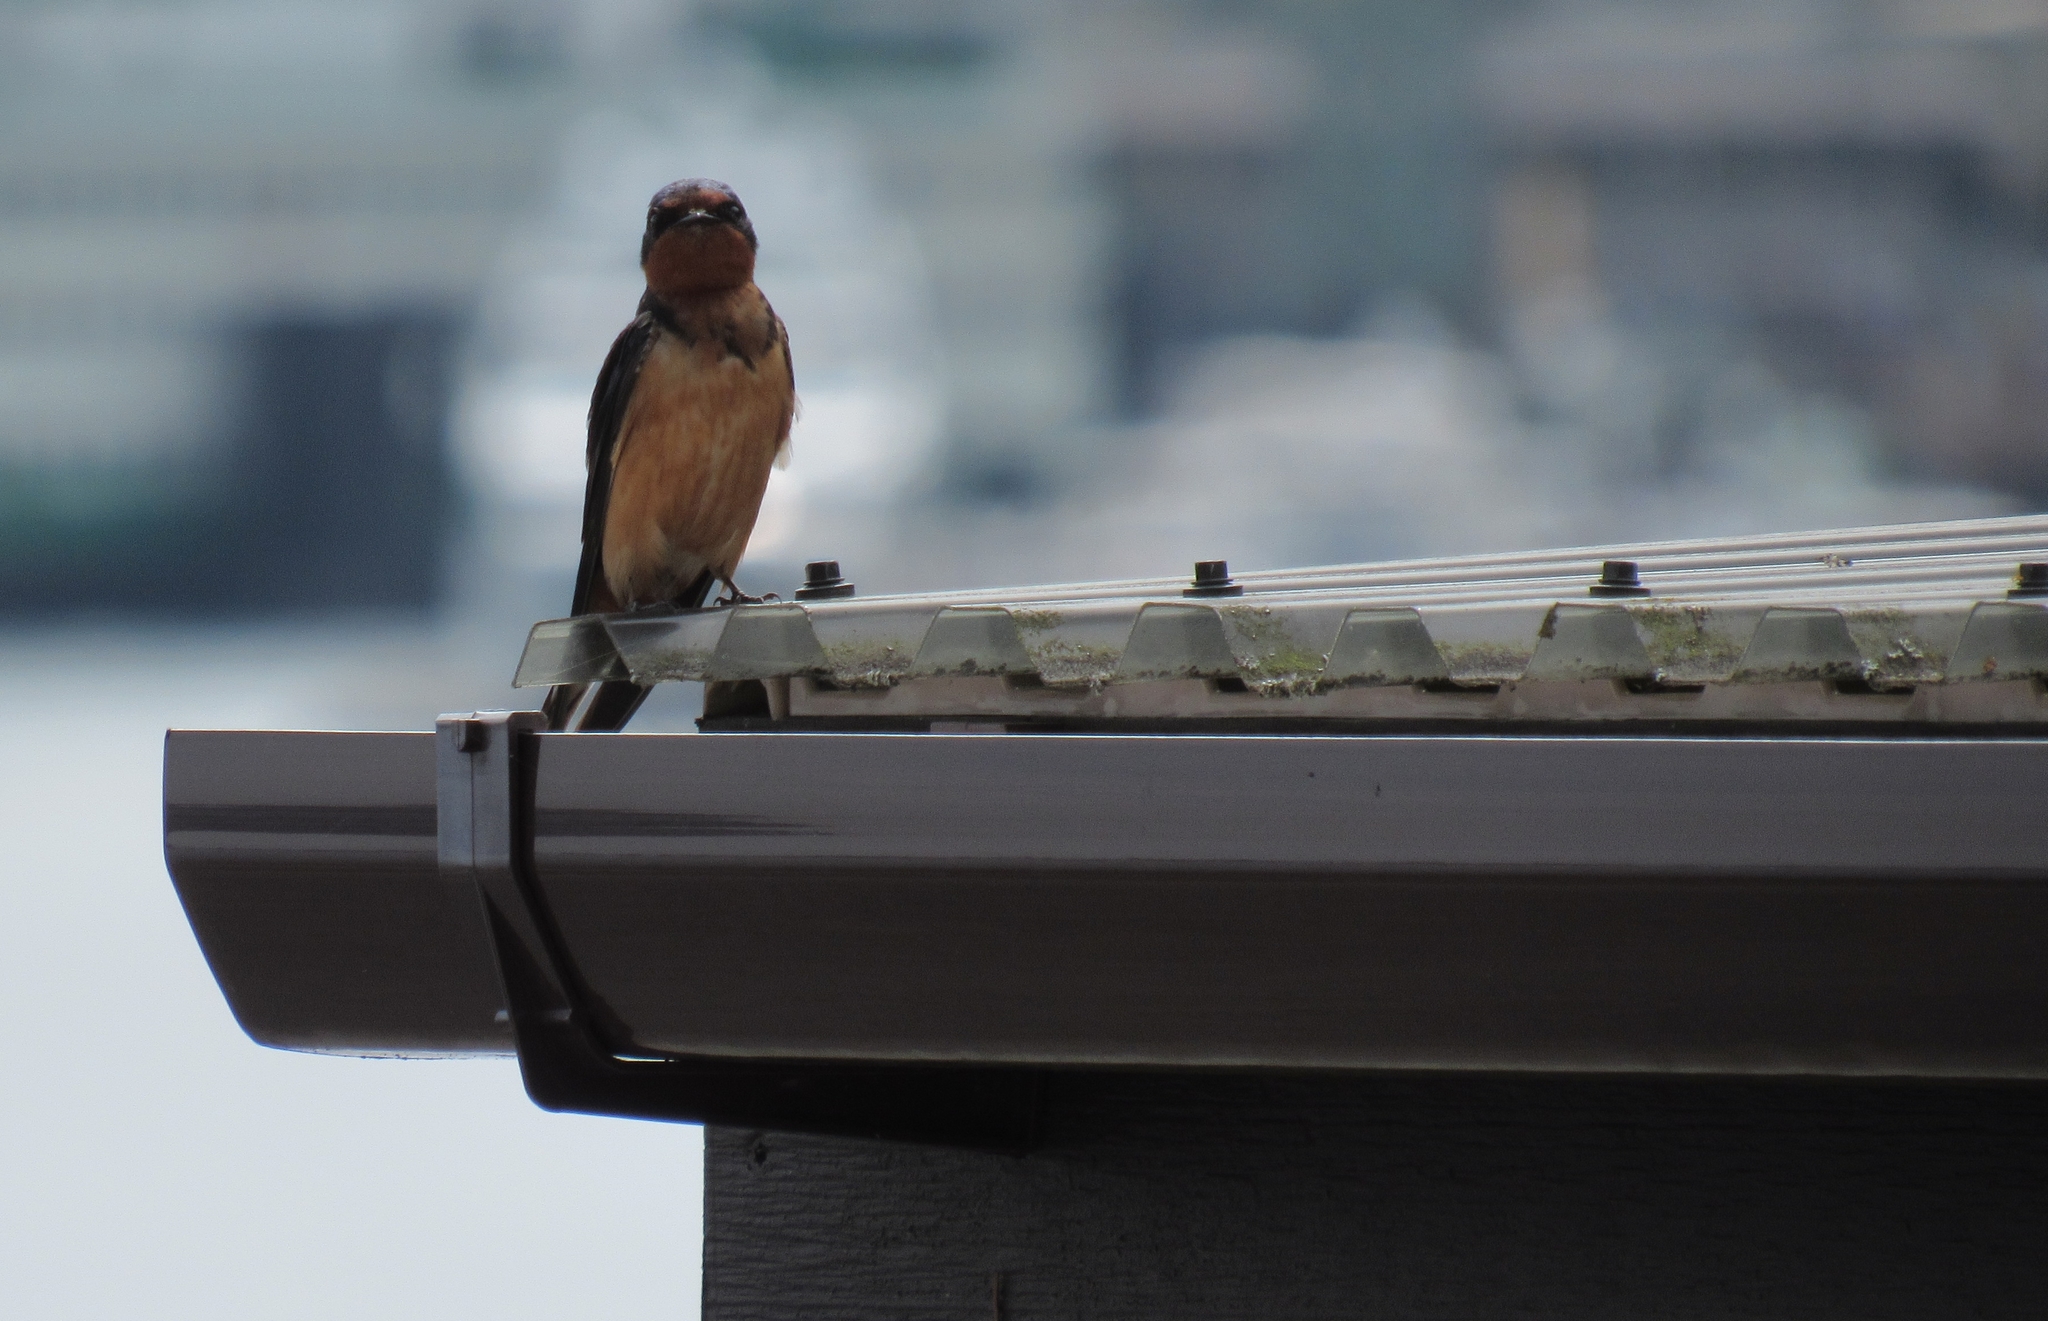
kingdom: Animalia
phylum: Chordata
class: Aves
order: Passeriformes
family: Hirundinidae
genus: Hirundo
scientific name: Hirundo rustica
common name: Barn swallow
